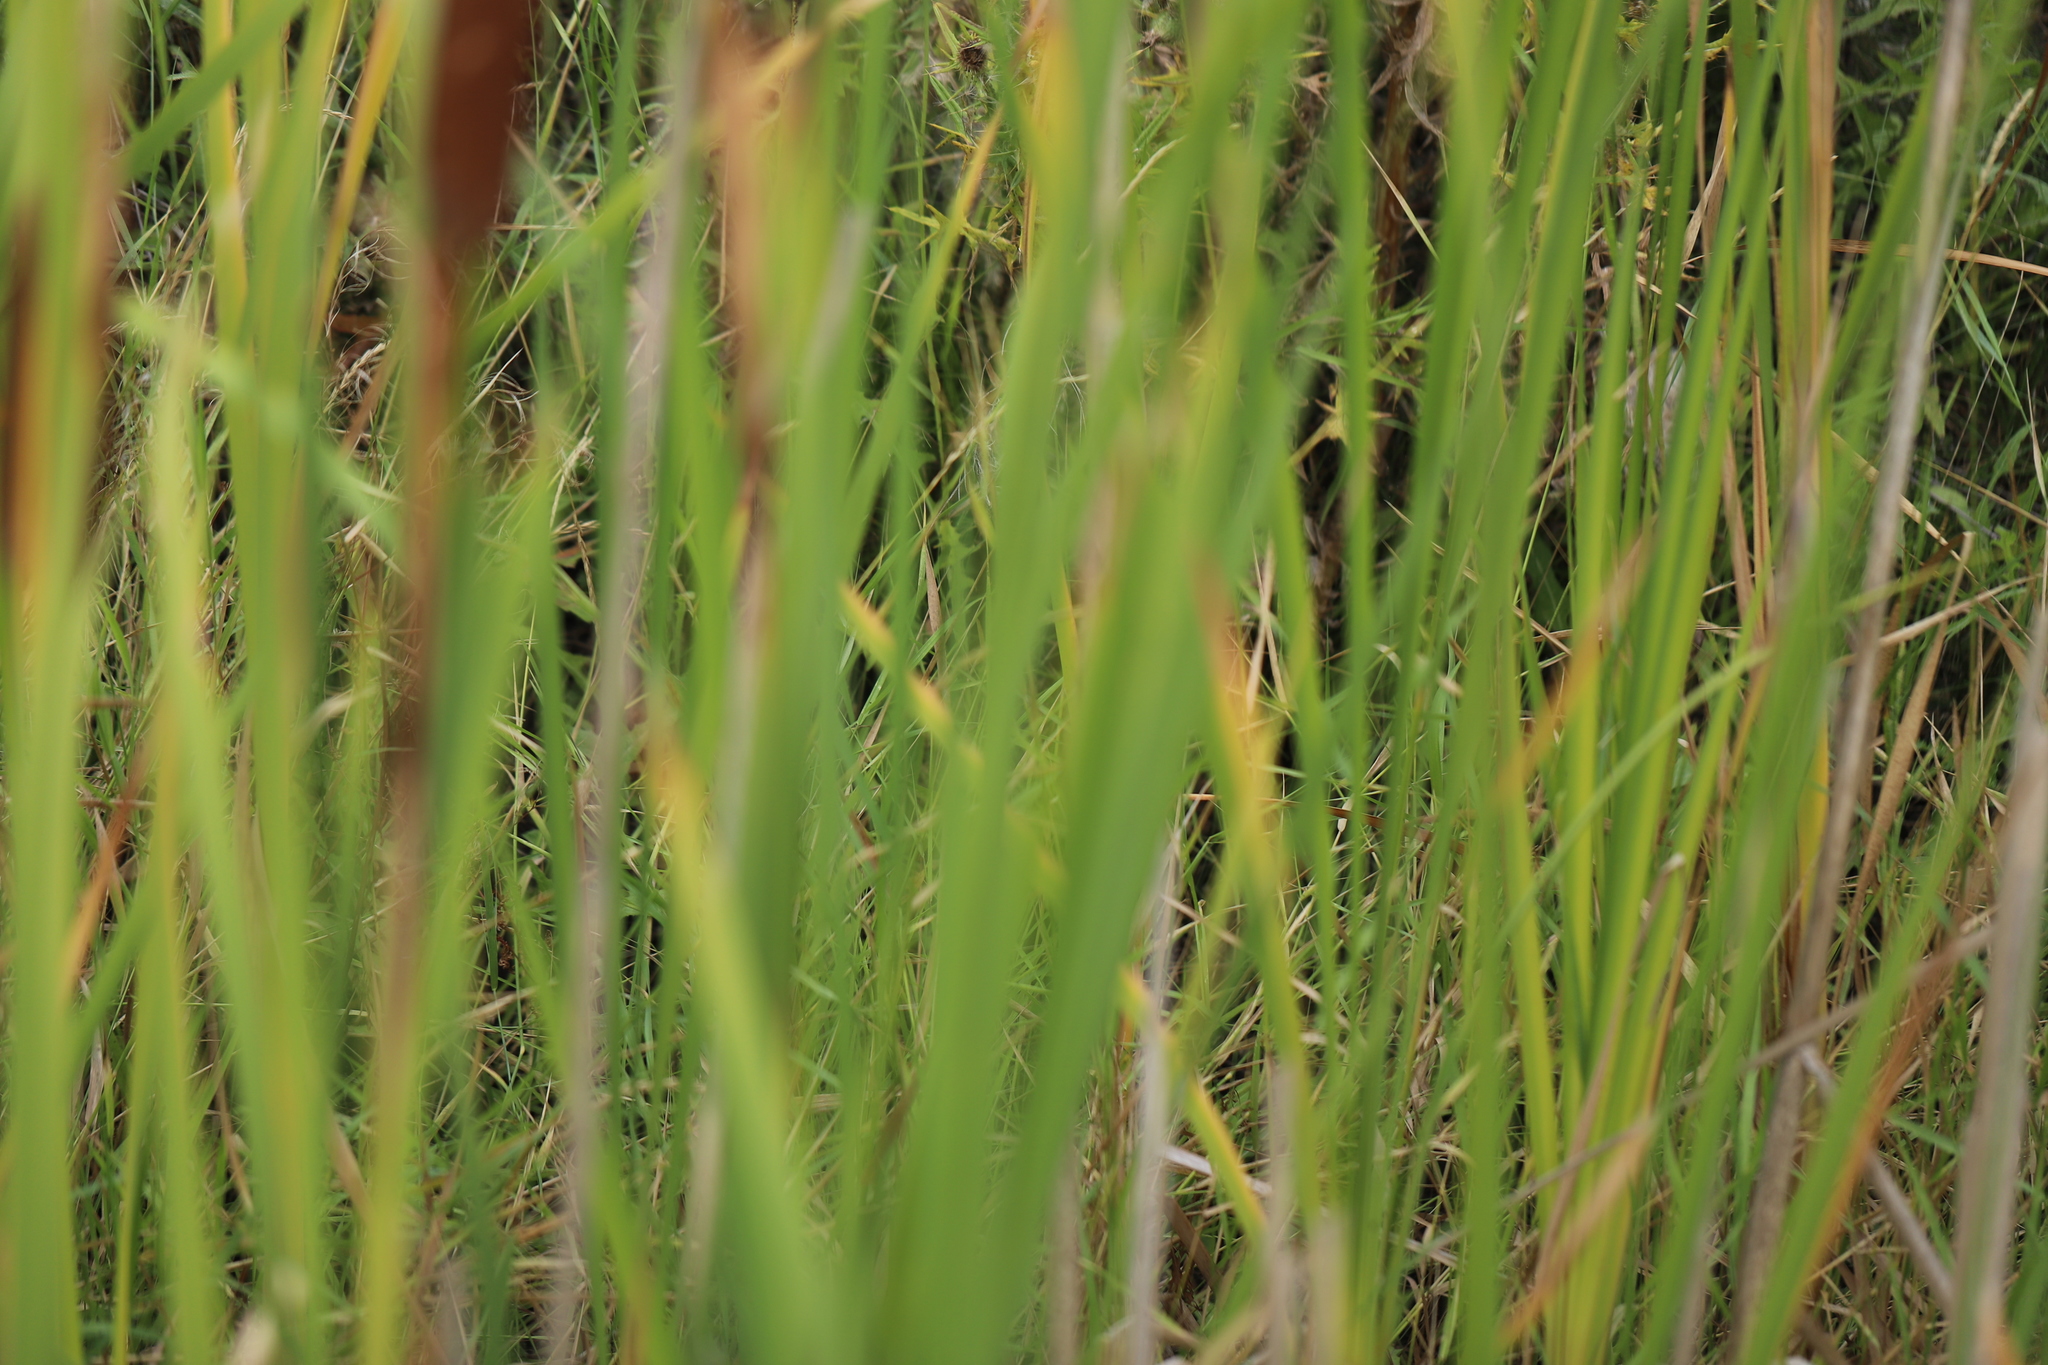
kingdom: Plantae
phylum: Tracheophyta
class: Liliopsida
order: Poales
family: Typhaceae
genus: Typha
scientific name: Typha latifolia
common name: Broadleaf cattail
